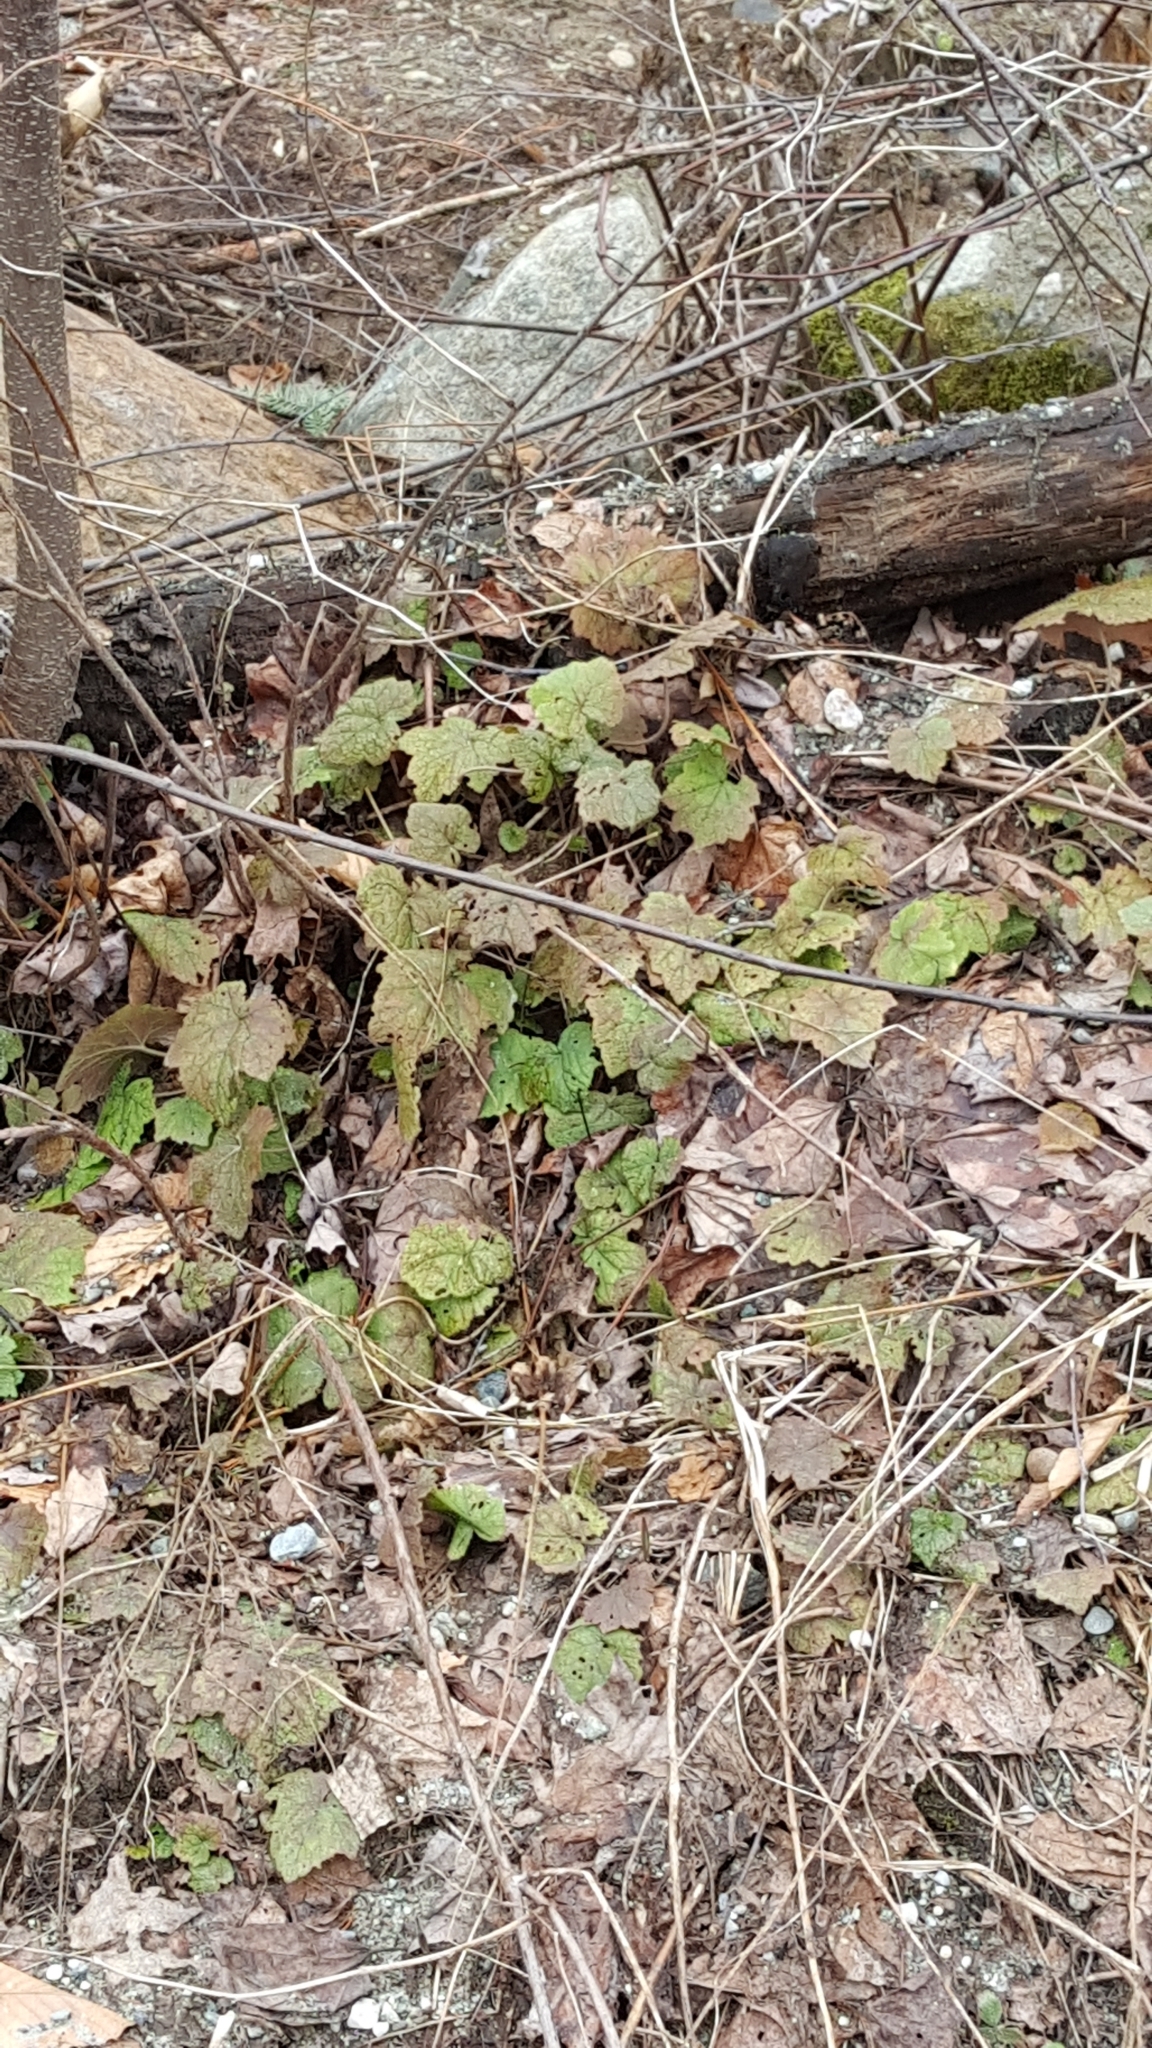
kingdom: Plantae
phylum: Tracheophyta
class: Magnoliopsida
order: Saxifragales
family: Saxifragaceae
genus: Tiarella
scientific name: Tiarella stolonifera
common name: Stoloniferous foamflower
